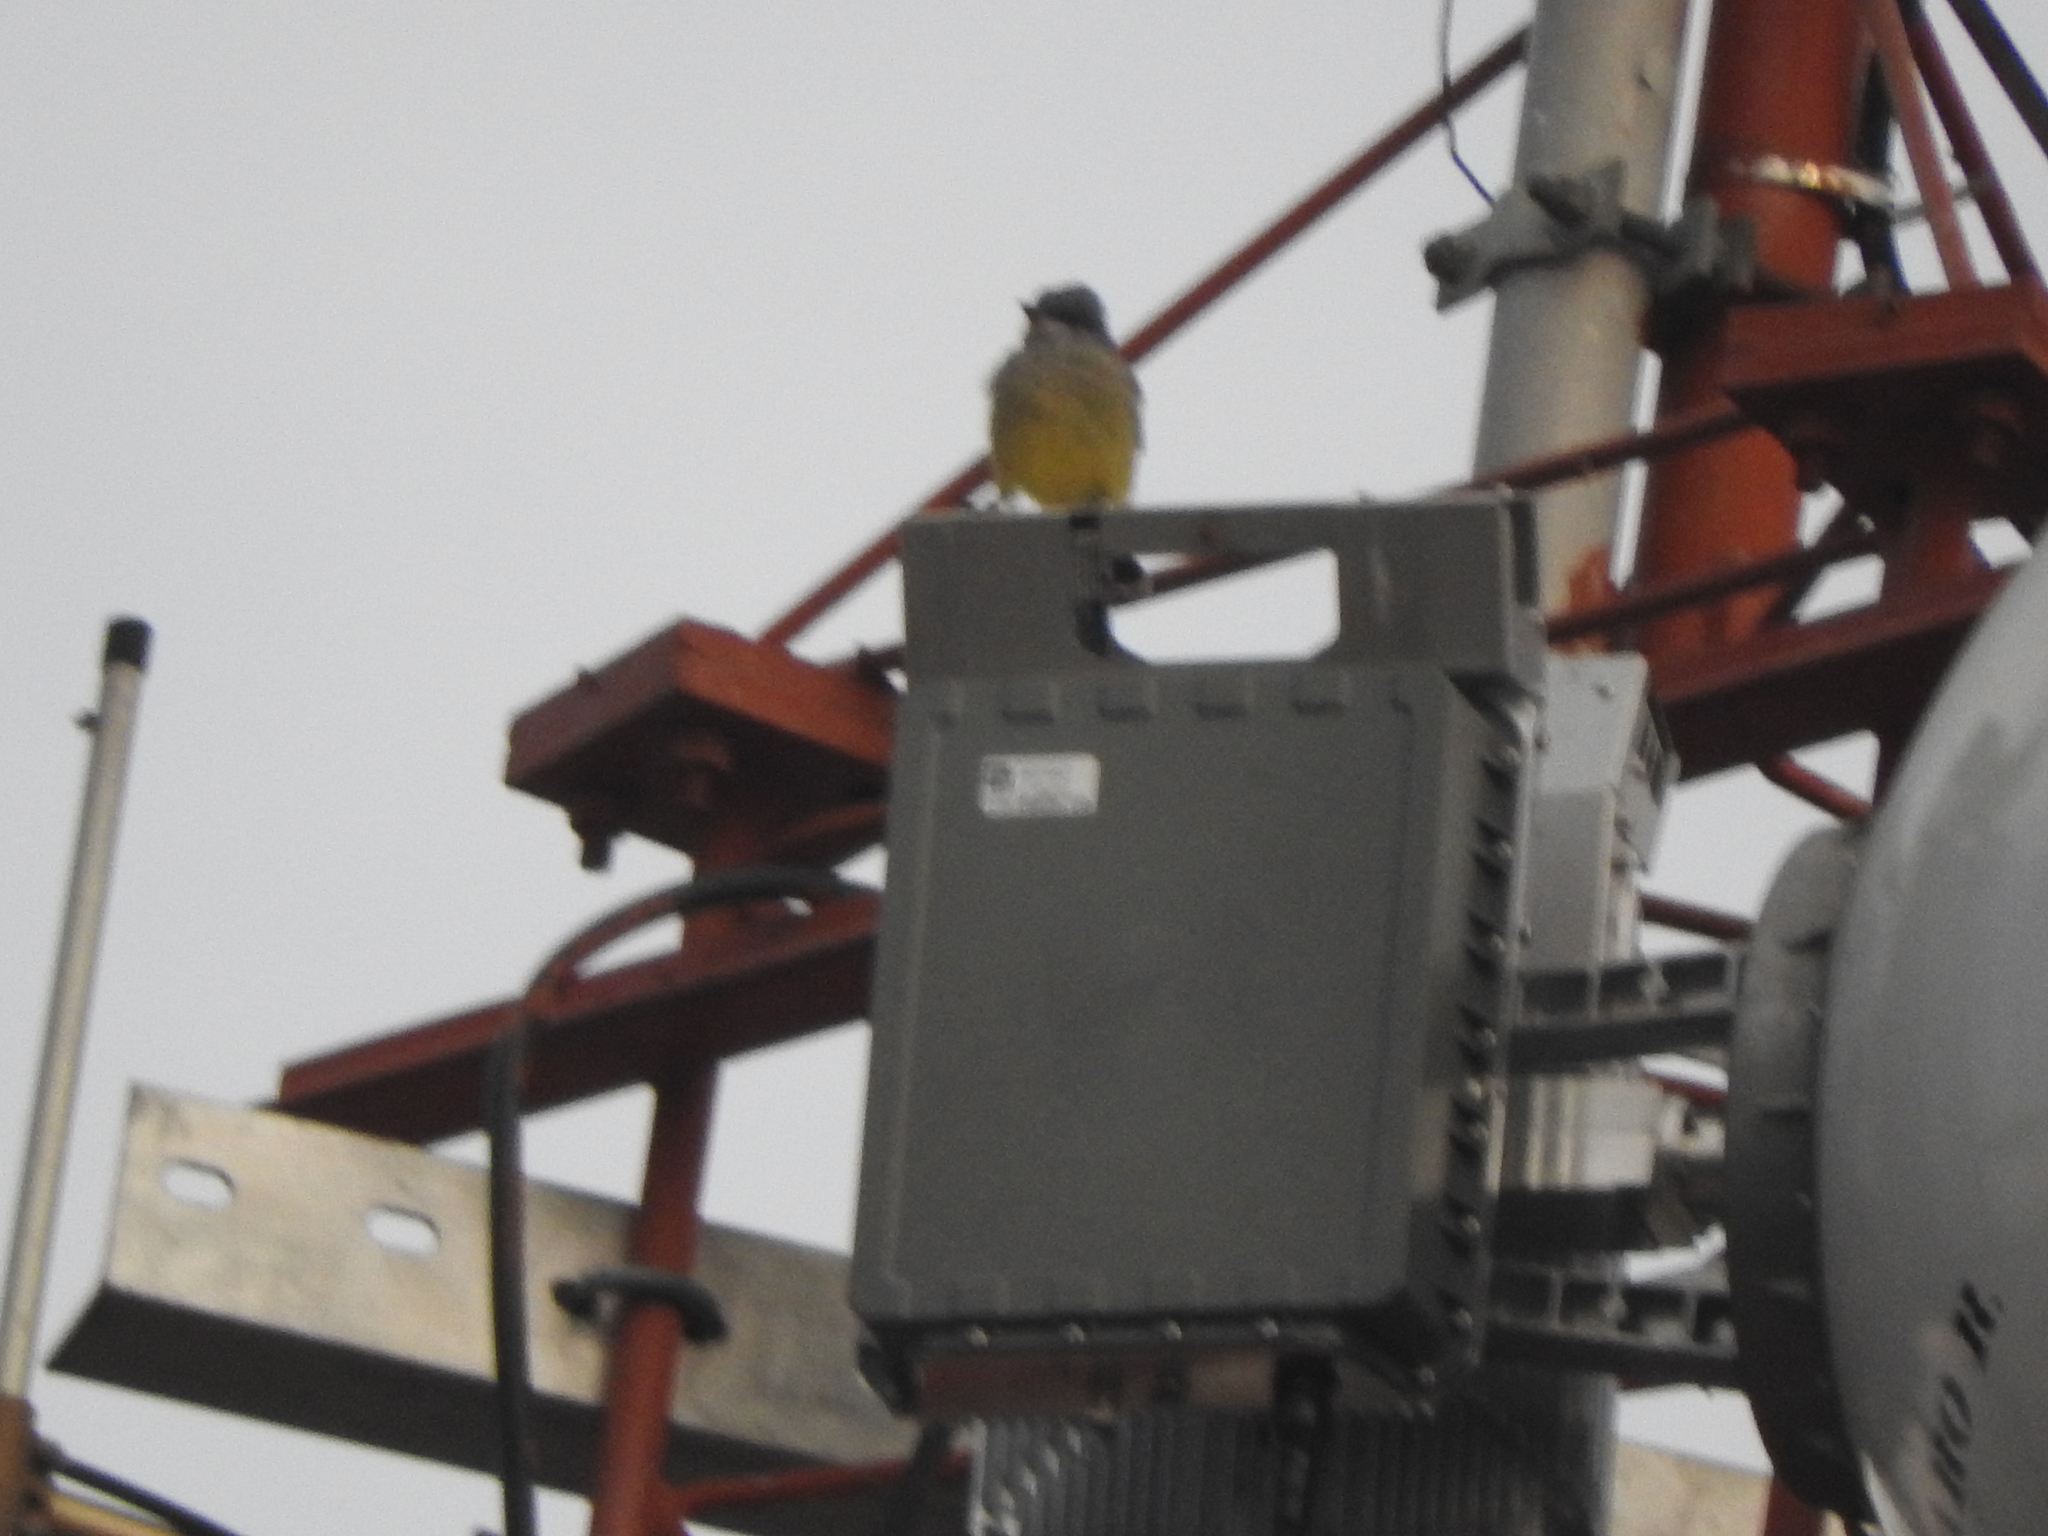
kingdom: Animalia
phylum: Chordata
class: Aves
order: Passeriformes
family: Tyrannidae
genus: Tyrannus
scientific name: Tyrannus vociferans
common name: Cassin's kingbird
